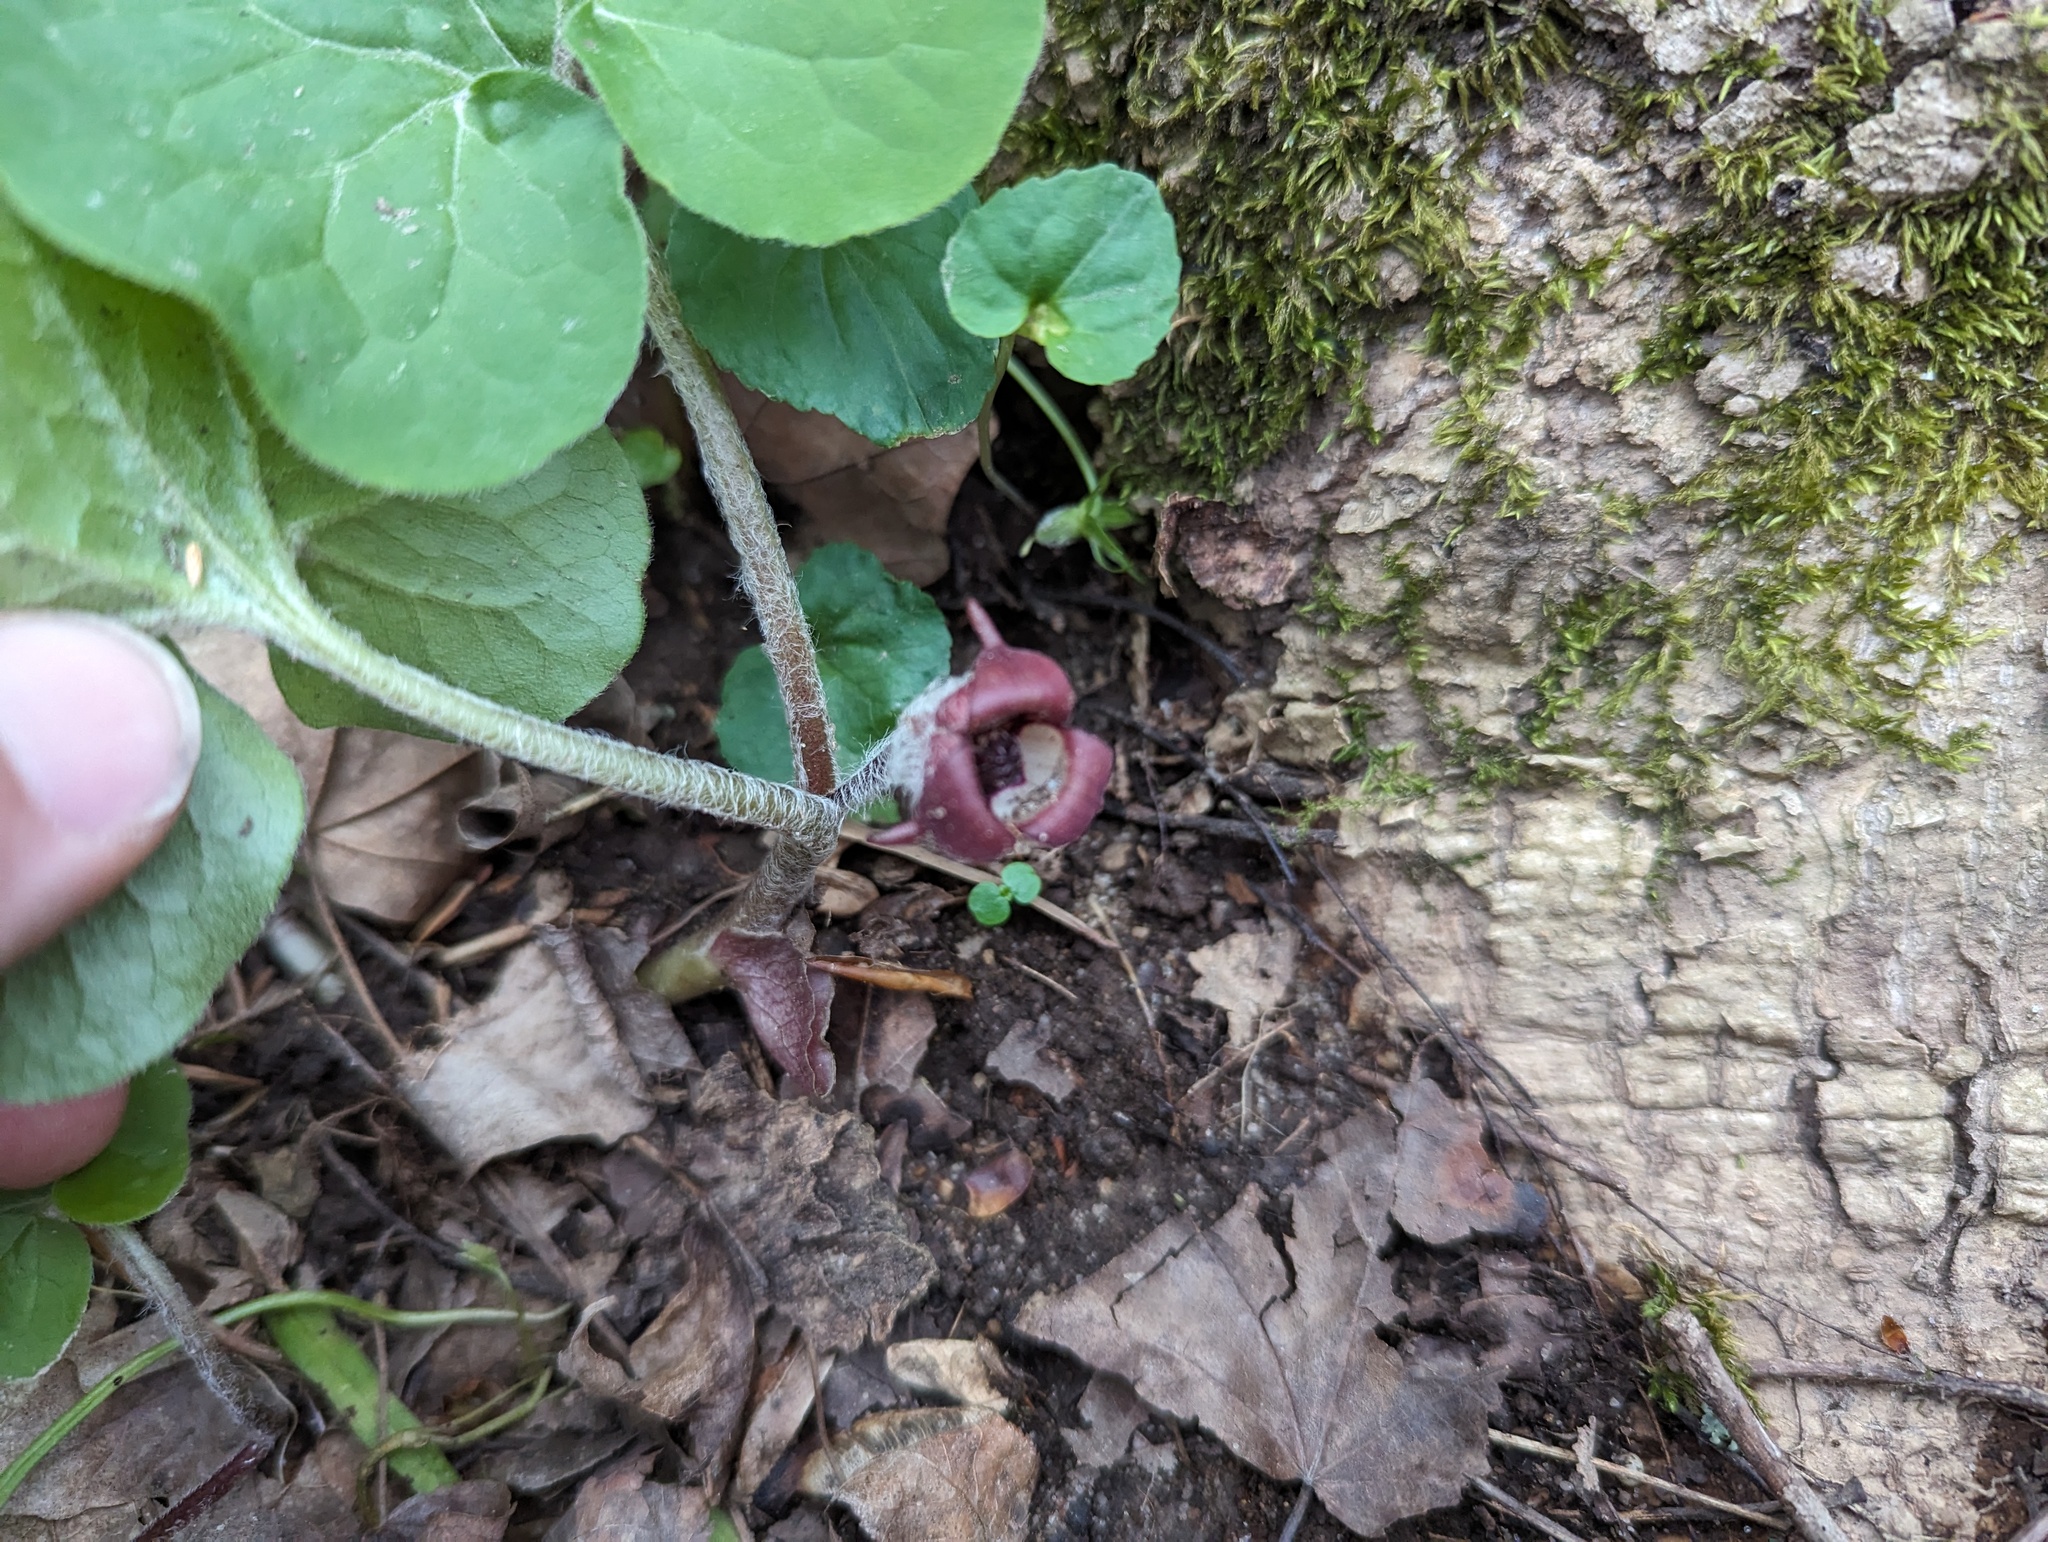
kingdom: Plantae
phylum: Tracheophyta
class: Magnoliopsida
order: Piperales
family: Aristolochiaceae
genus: Asarum
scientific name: Asarum canadense
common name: Wild ginger
